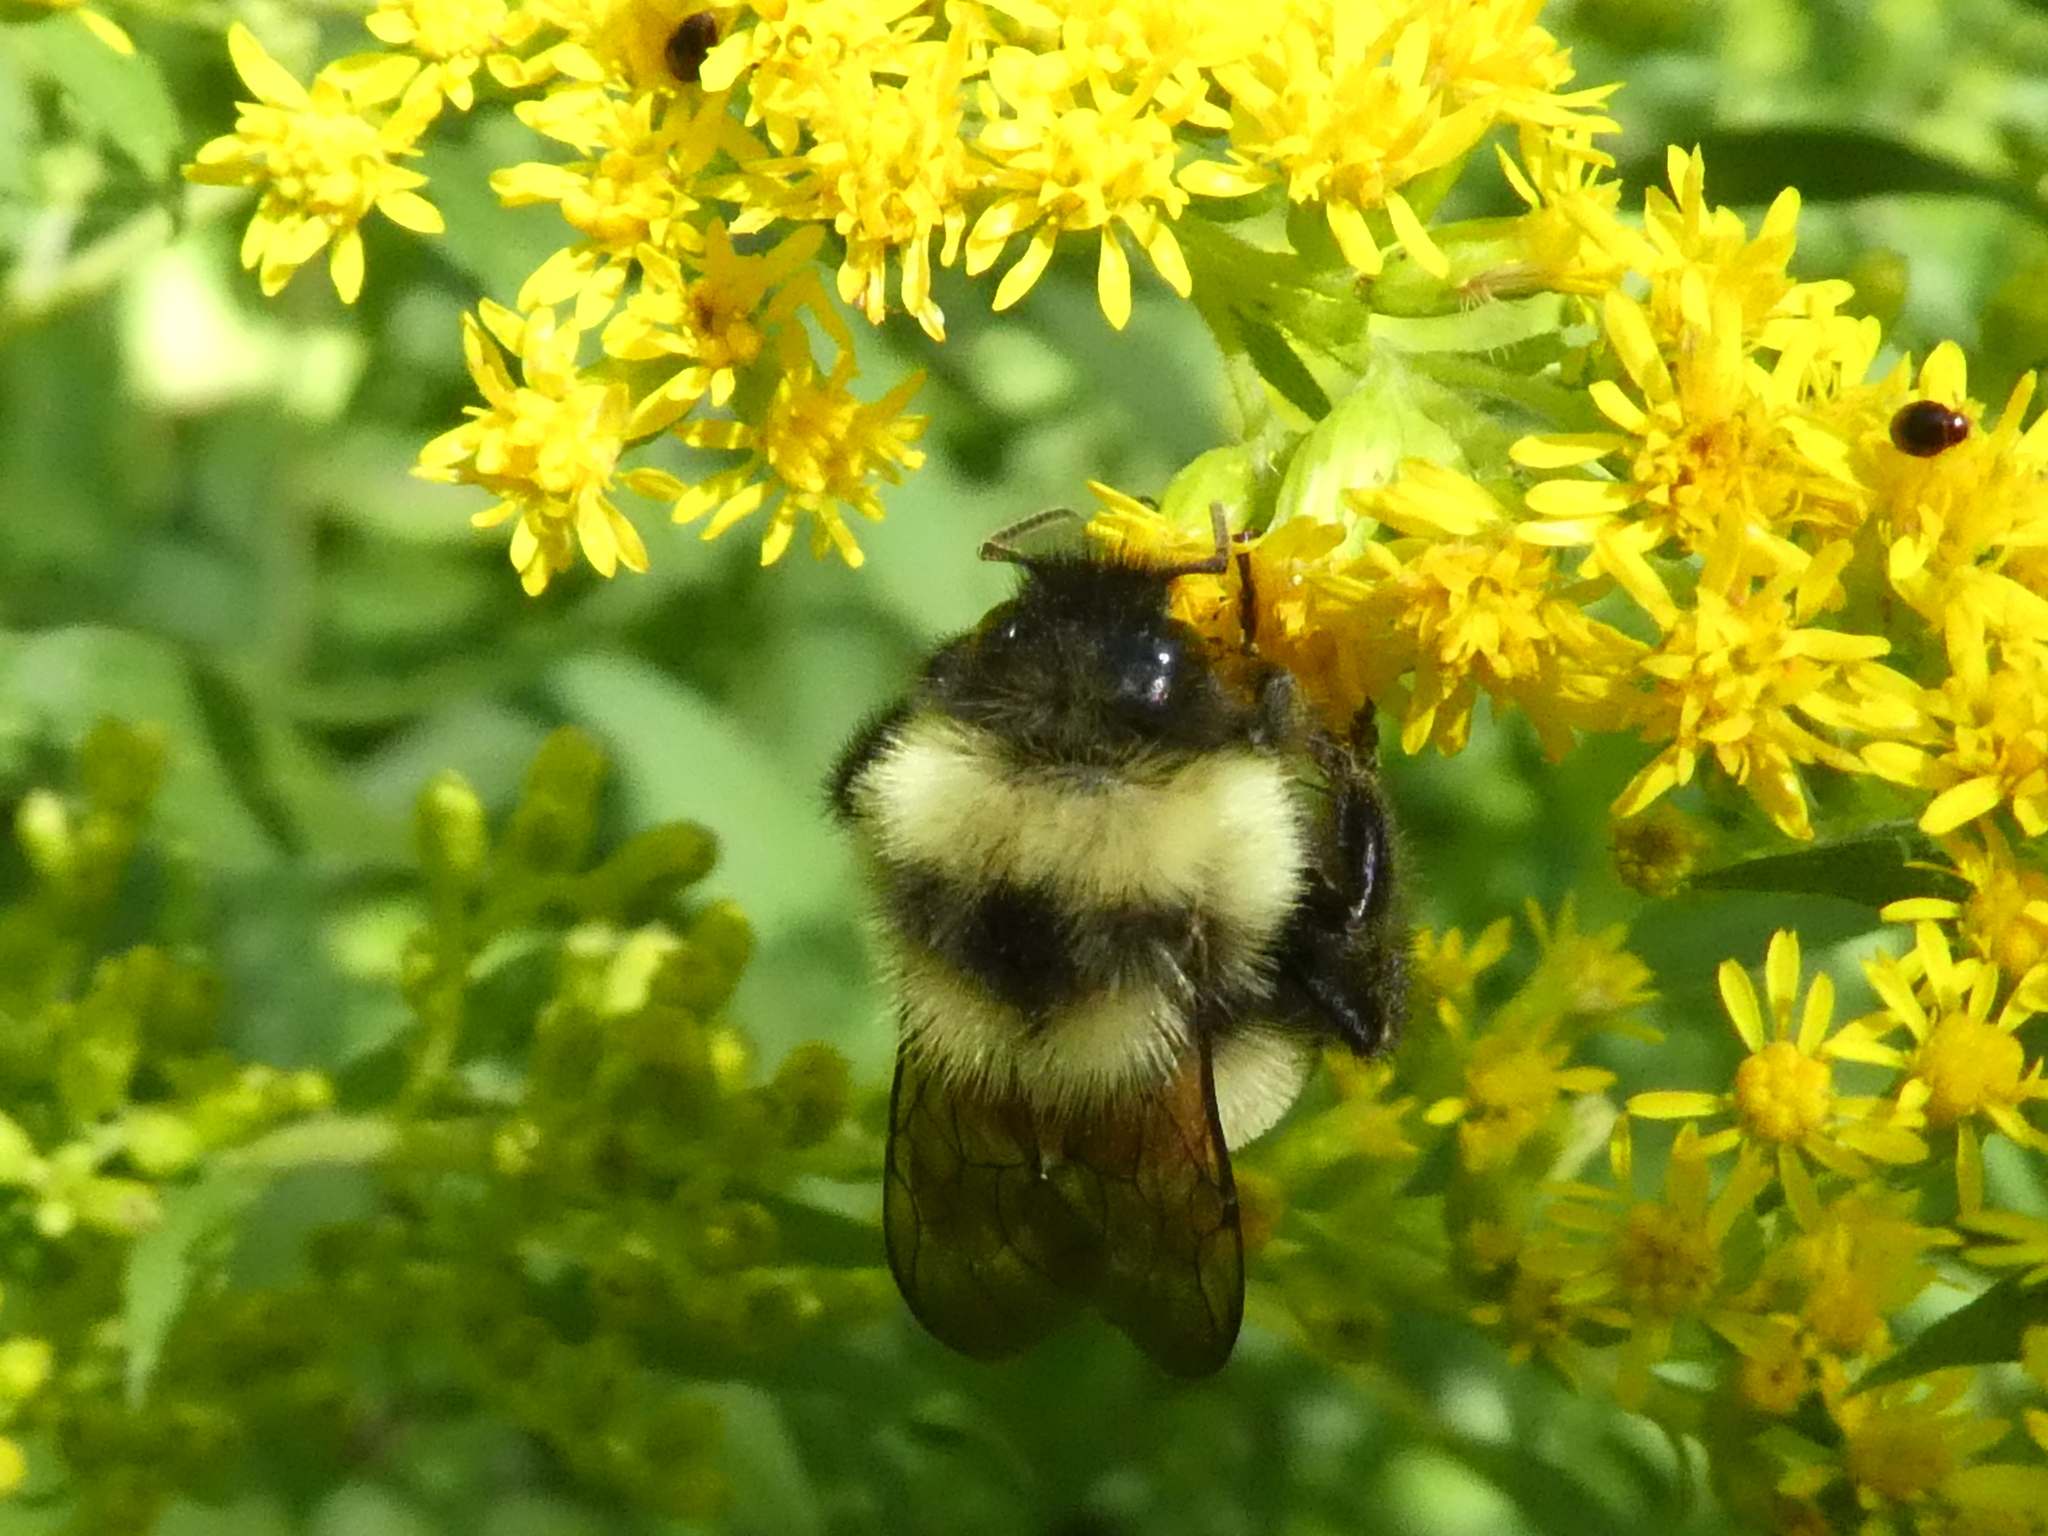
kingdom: Animalia
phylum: Arthropoda
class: Insecta
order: Hymenoptera
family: Apidae
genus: Bombus
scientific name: Bombus affinis
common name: Rusty patched bumble bee
